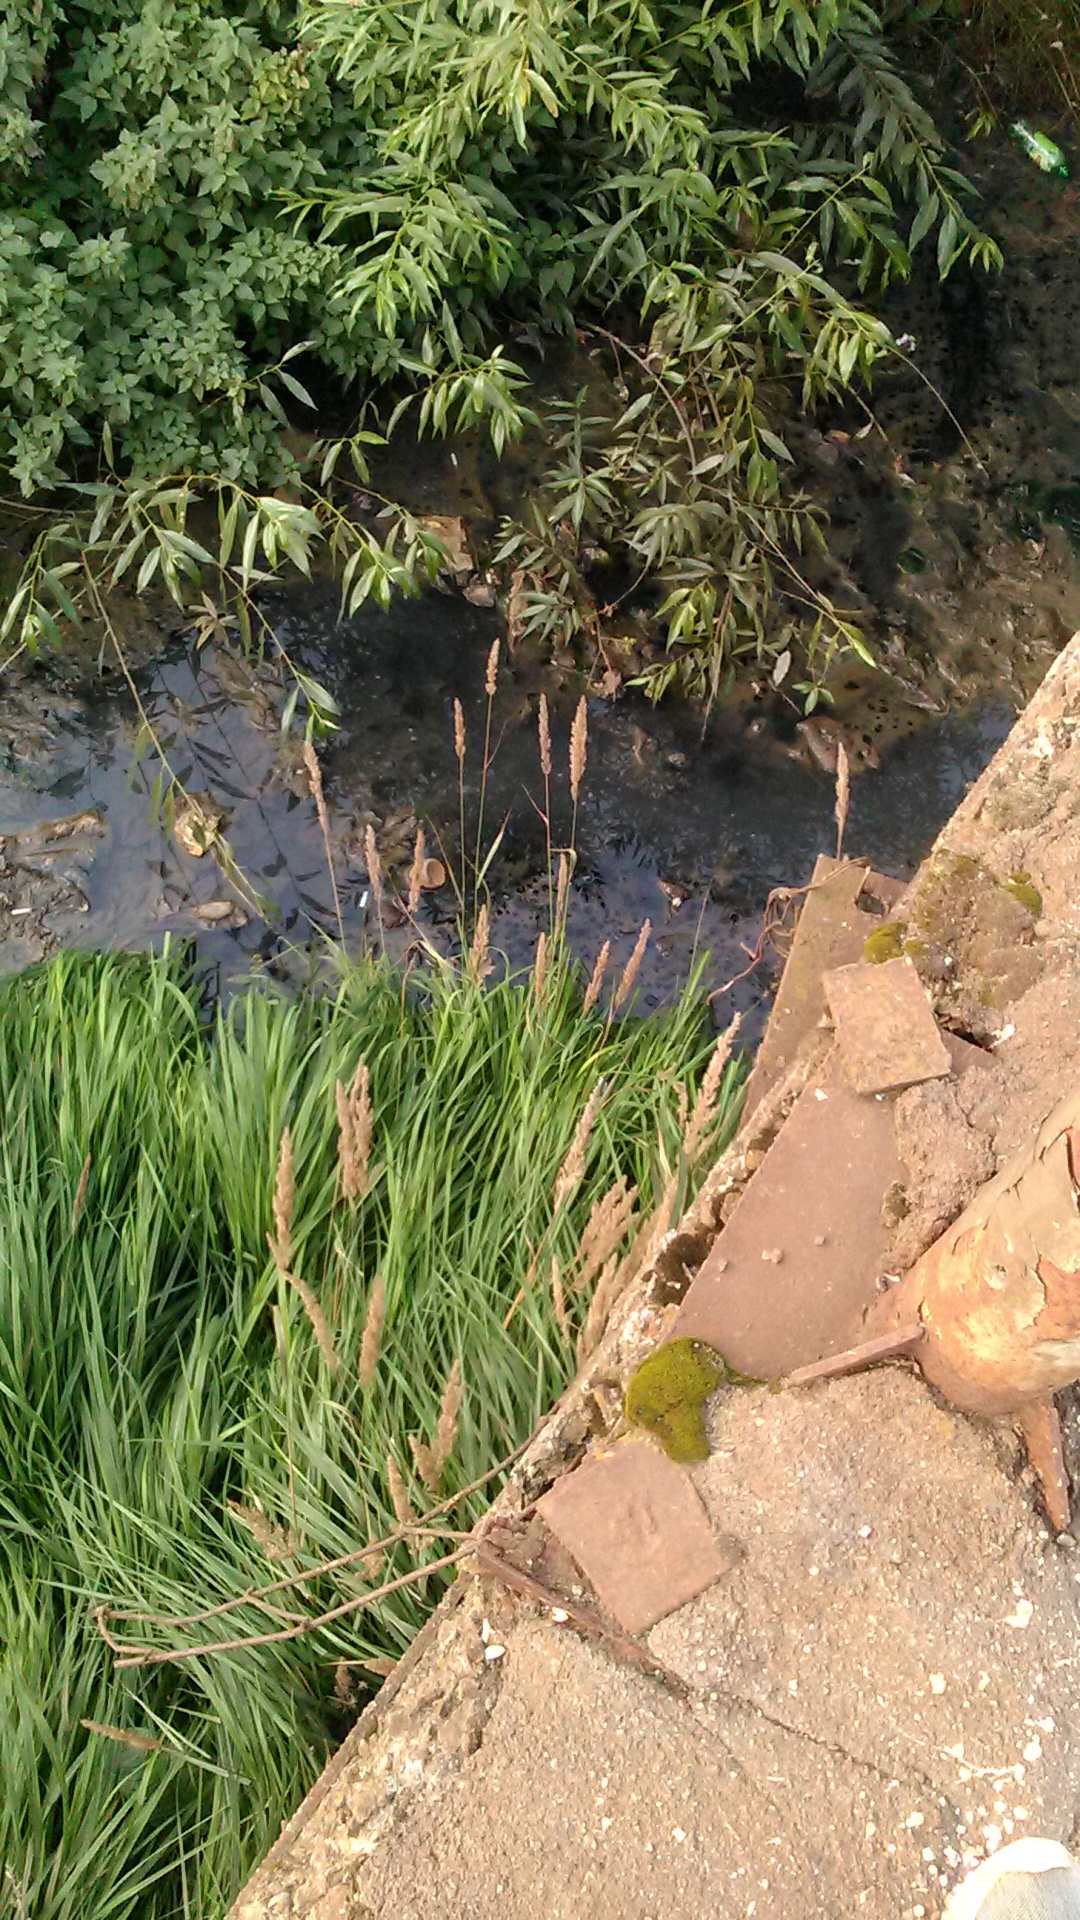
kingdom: Plantae
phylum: Tracheophyta
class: Liliopsida
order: Poales
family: Poaceae
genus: Calamagrostis
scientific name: Calamagrostis epigejos
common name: Wood small-reed
